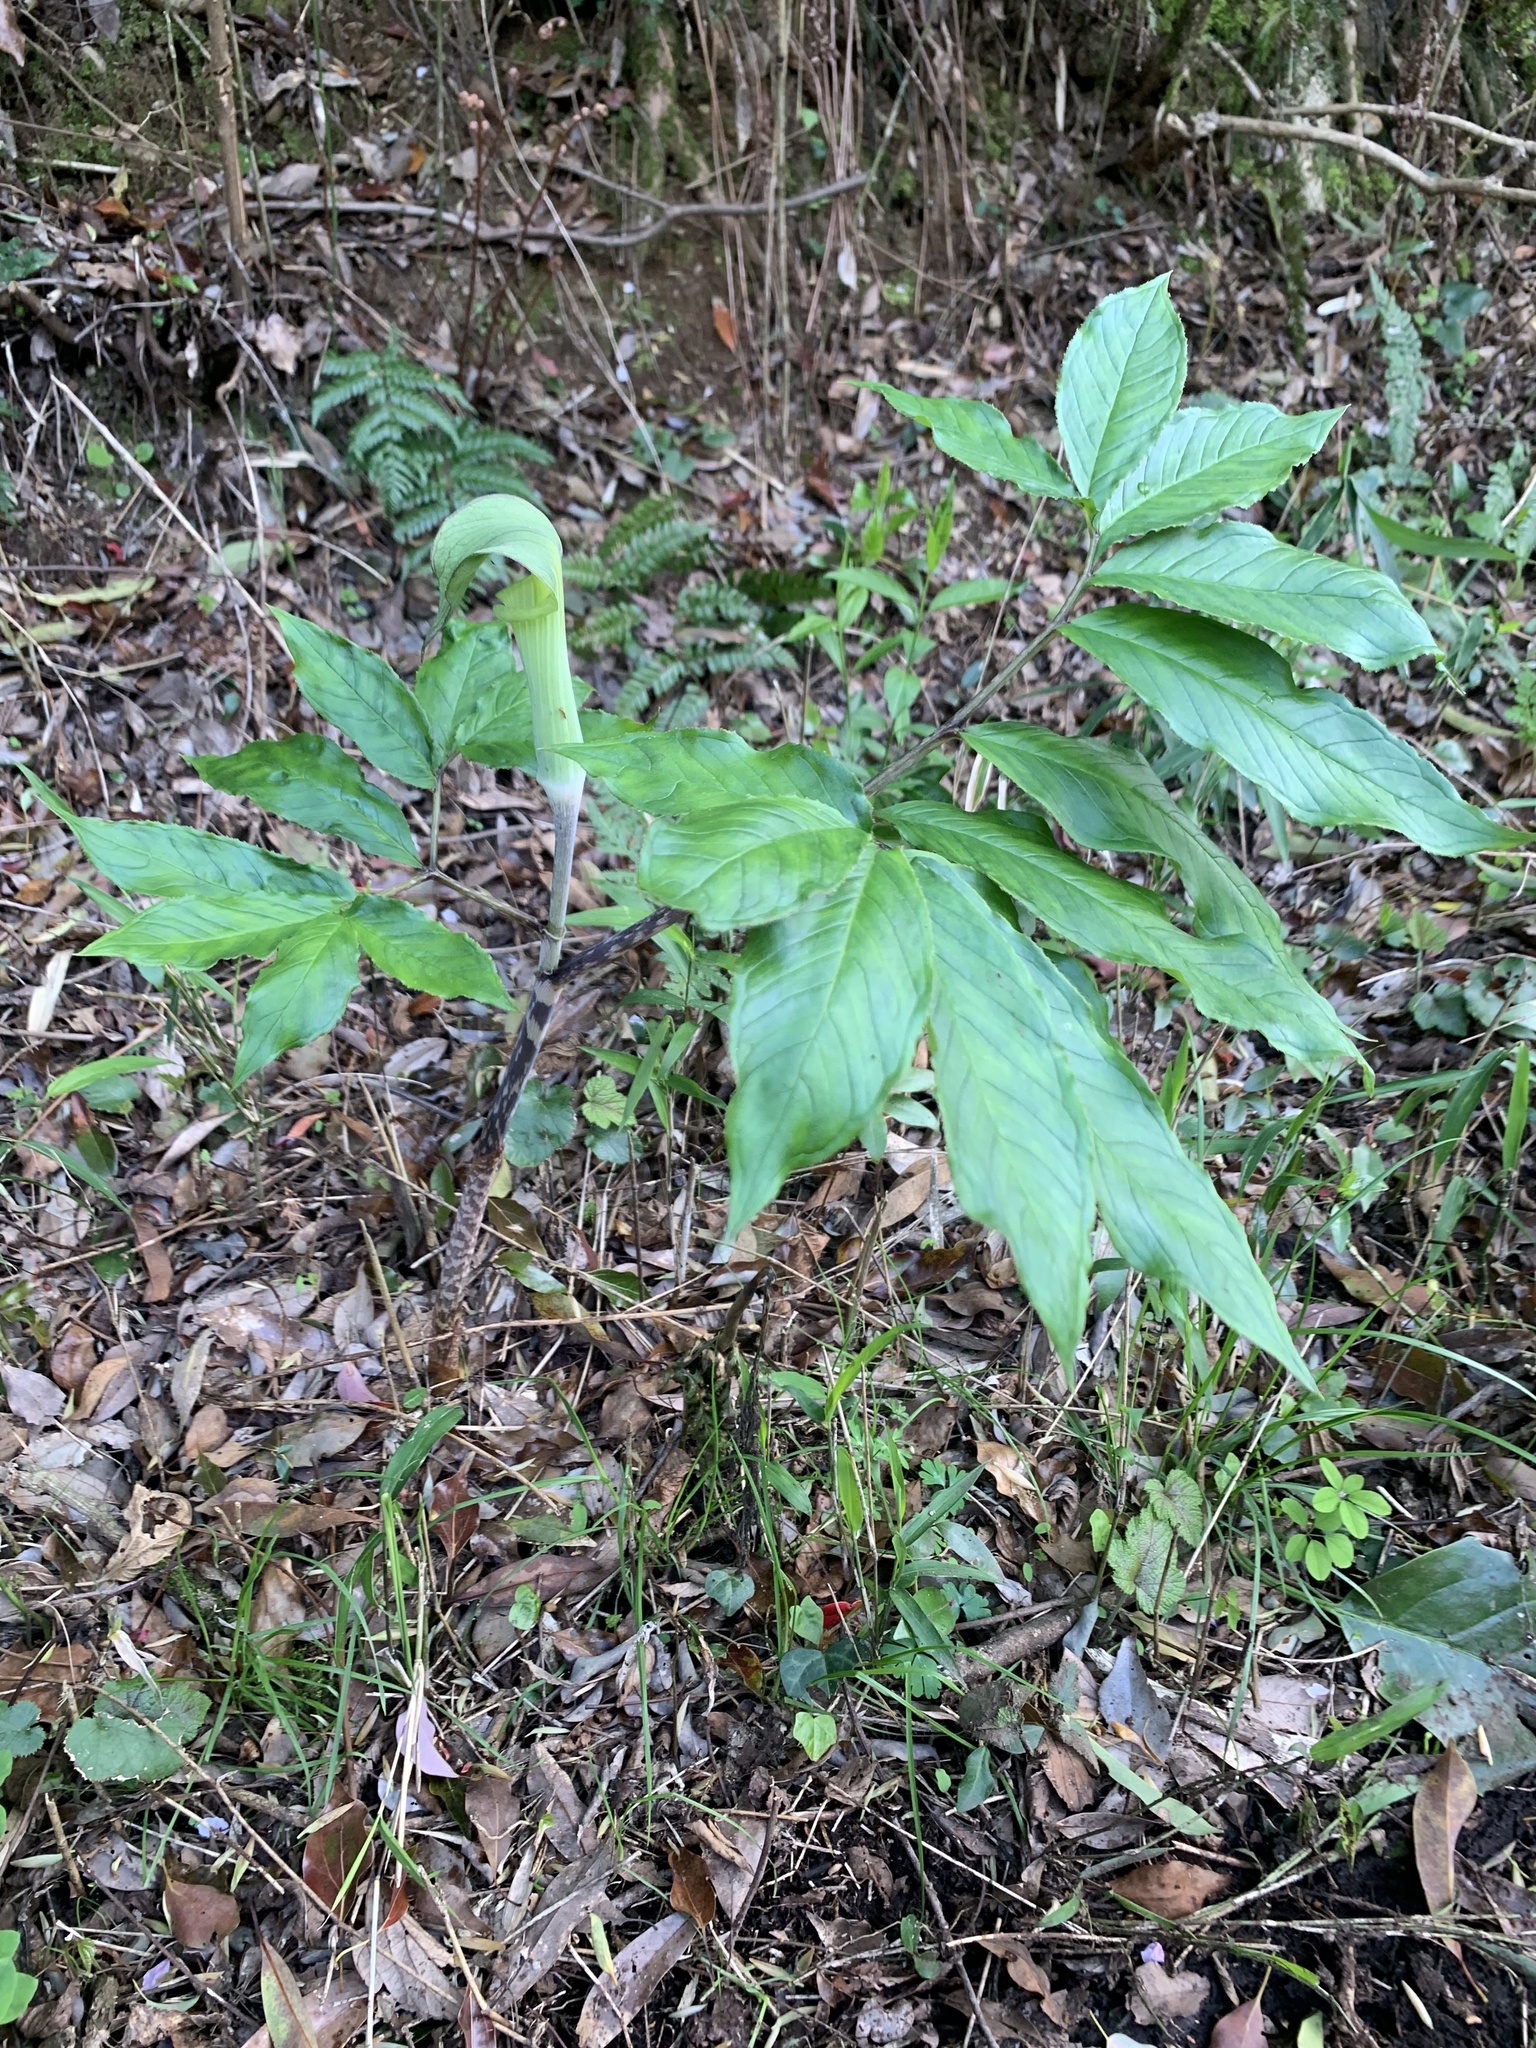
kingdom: Plantae
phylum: Tracheophyta
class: Liliopsida
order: Alismatales
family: Araceae
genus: Arisaema
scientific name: Arisaema yamatense
